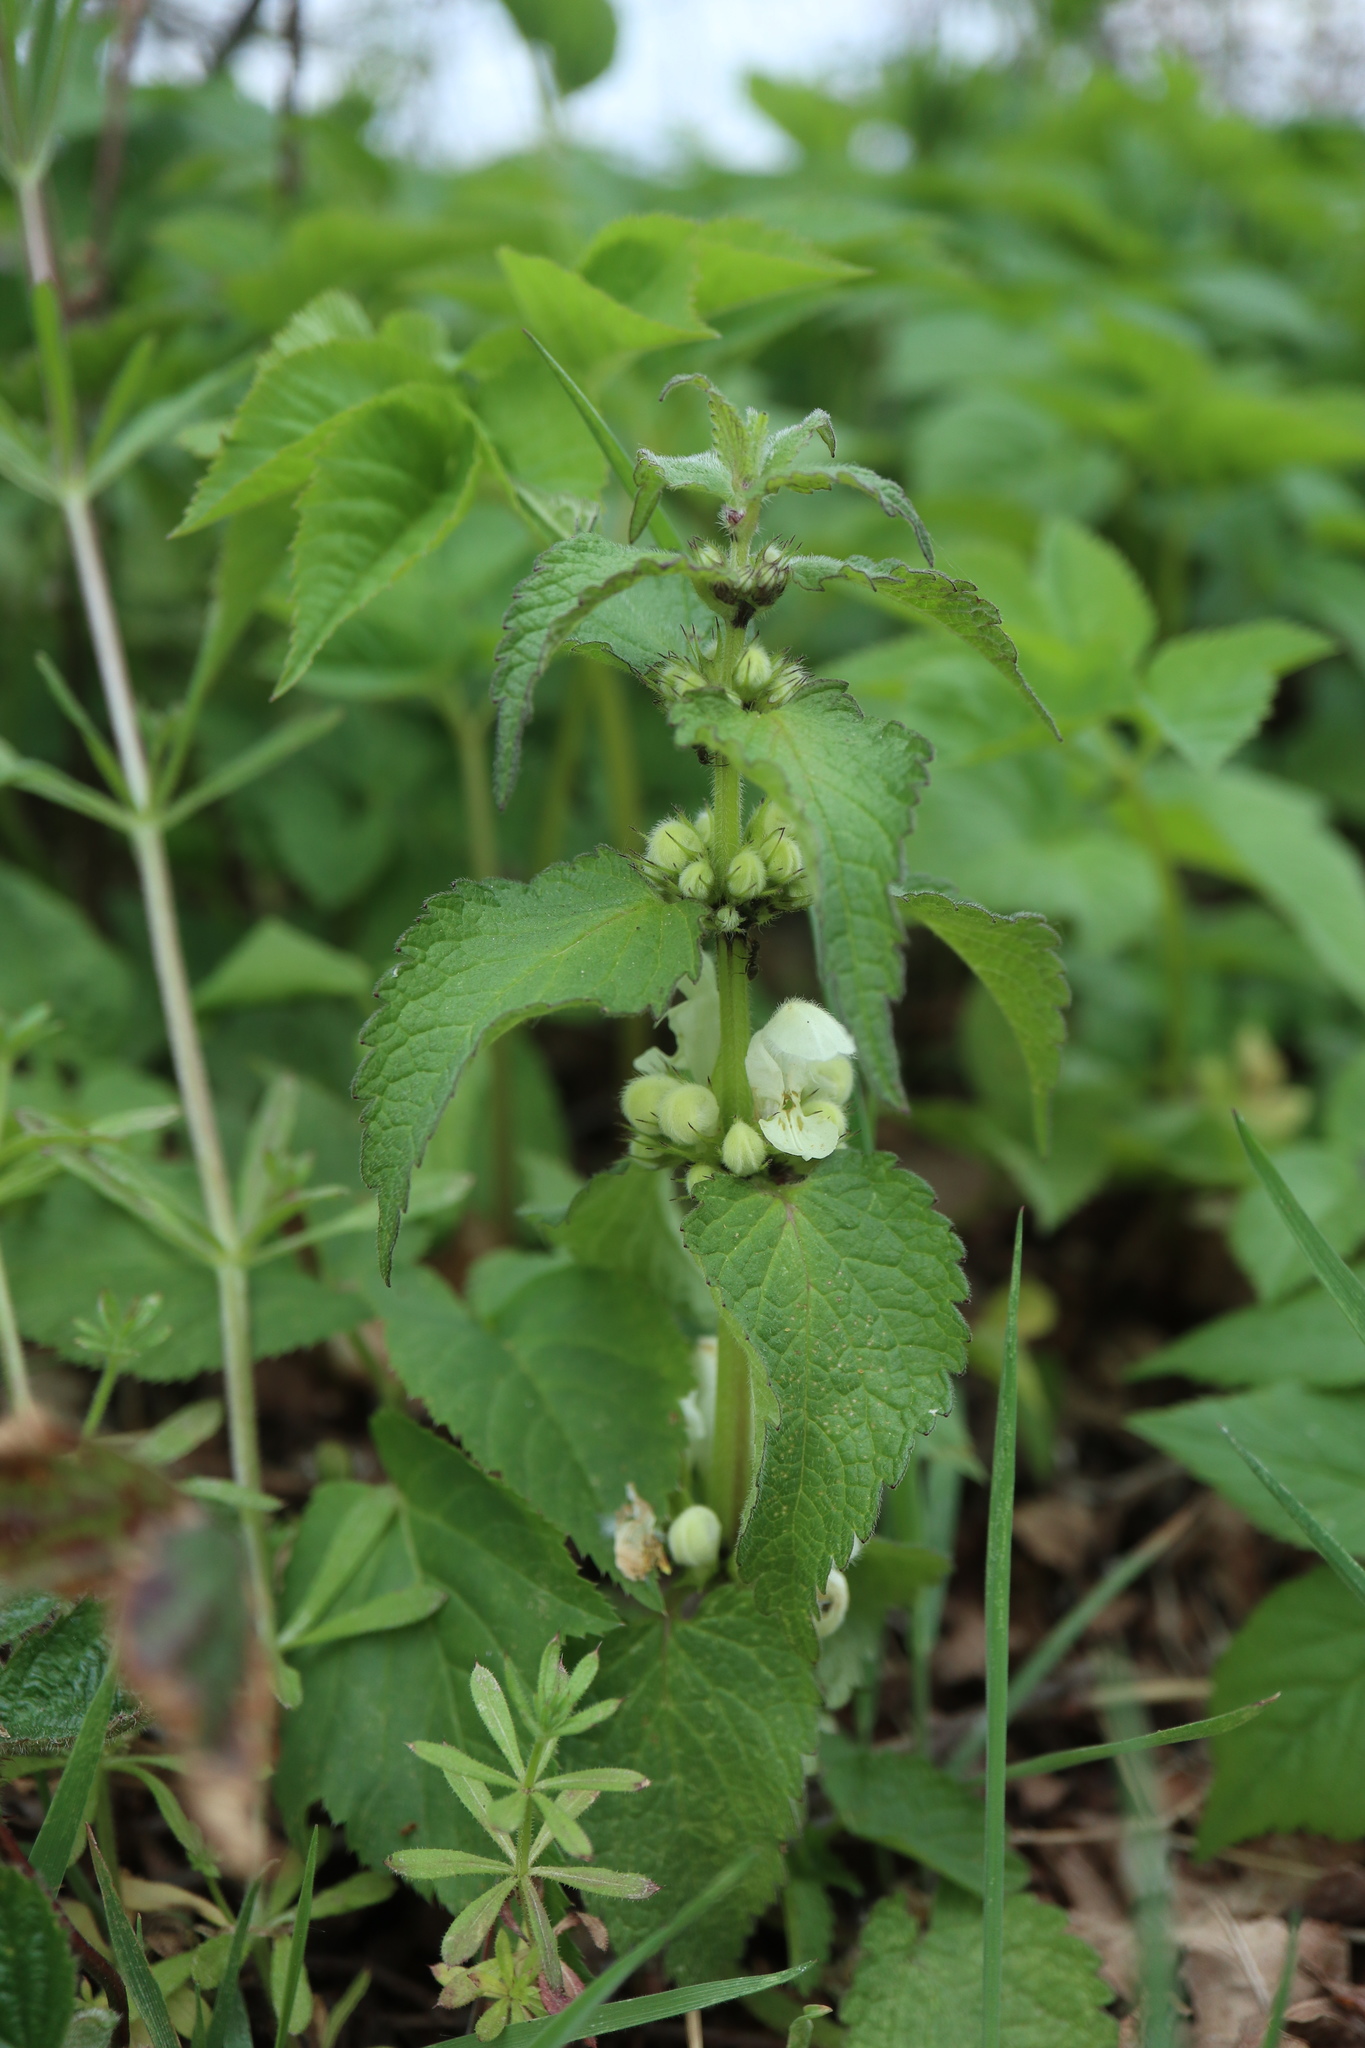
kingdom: Plantae
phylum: Tracheophyta
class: Magnoliopsida
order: Lamiales
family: Lamiaceae
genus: Lamium
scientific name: Lamium album
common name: White dead-nettle
